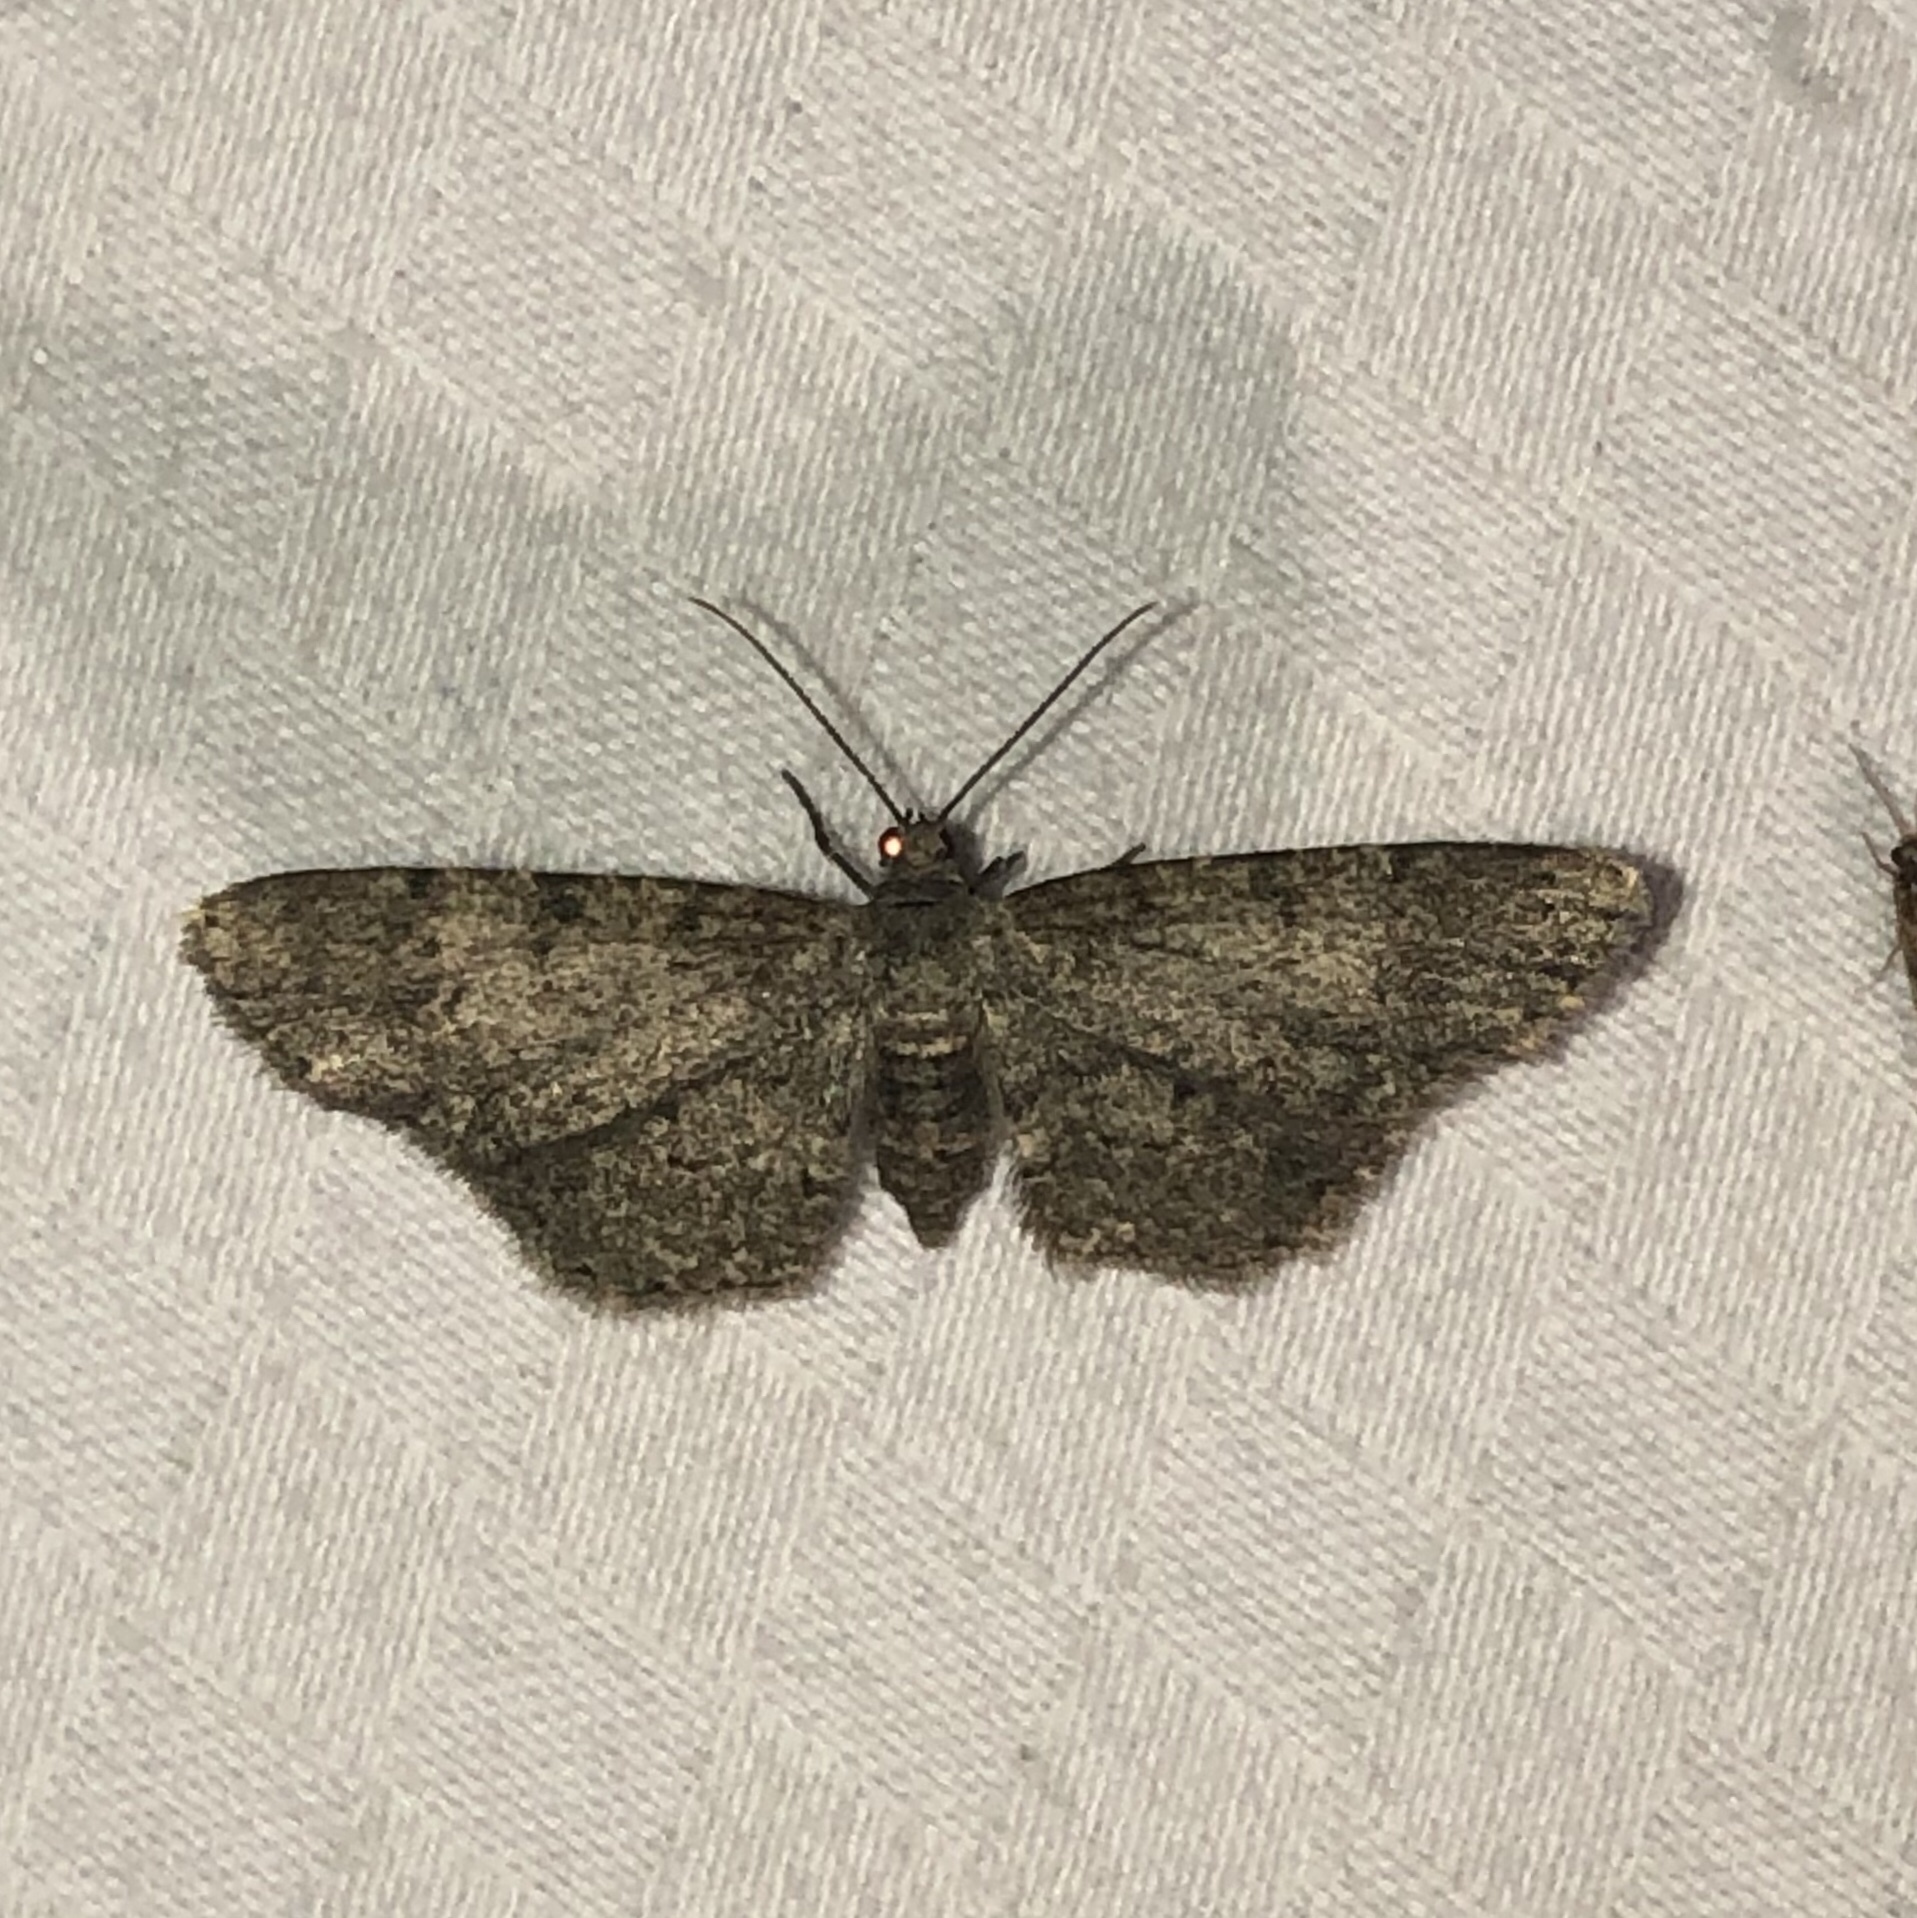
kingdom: Animalia
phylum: Arthropoda
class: Insecta
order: Lepidoptera
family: Geometridae
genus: Glenoides
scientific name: Glenoides texanaria
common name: Texas gray
